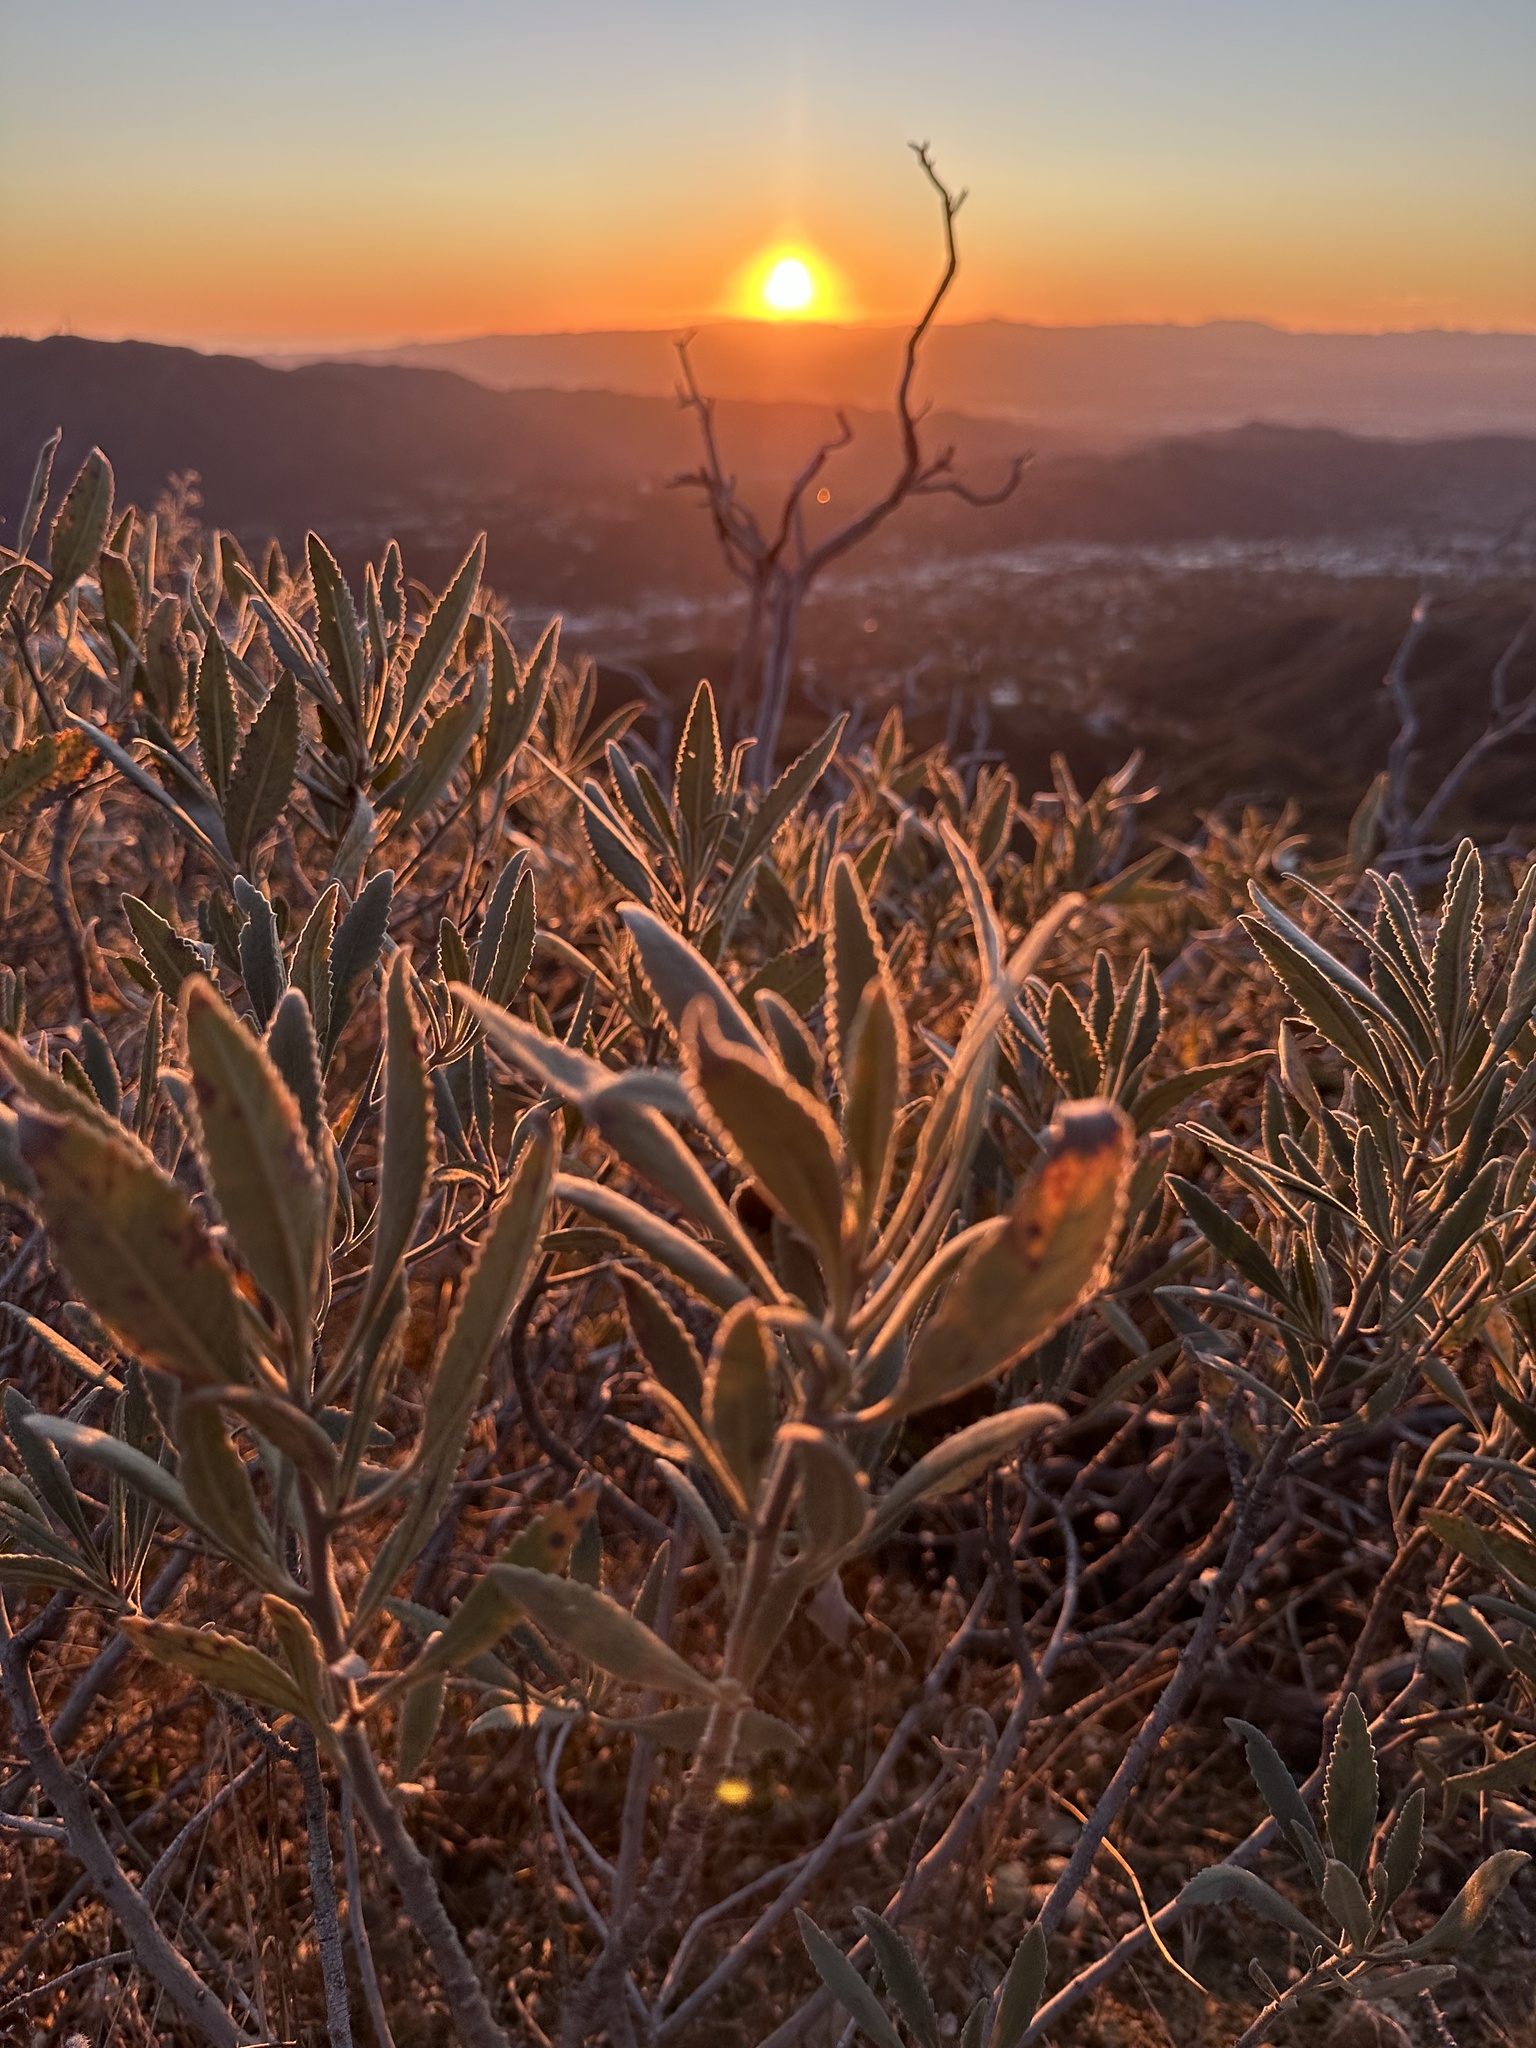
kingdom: Plantae
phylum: Tracheophyta
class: Magnoliopsida
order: Boraginales
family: Namaceae
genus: Eriodictyon
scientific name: Eriodictyon crassifolium
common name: Thick-leaf yerba-santa
